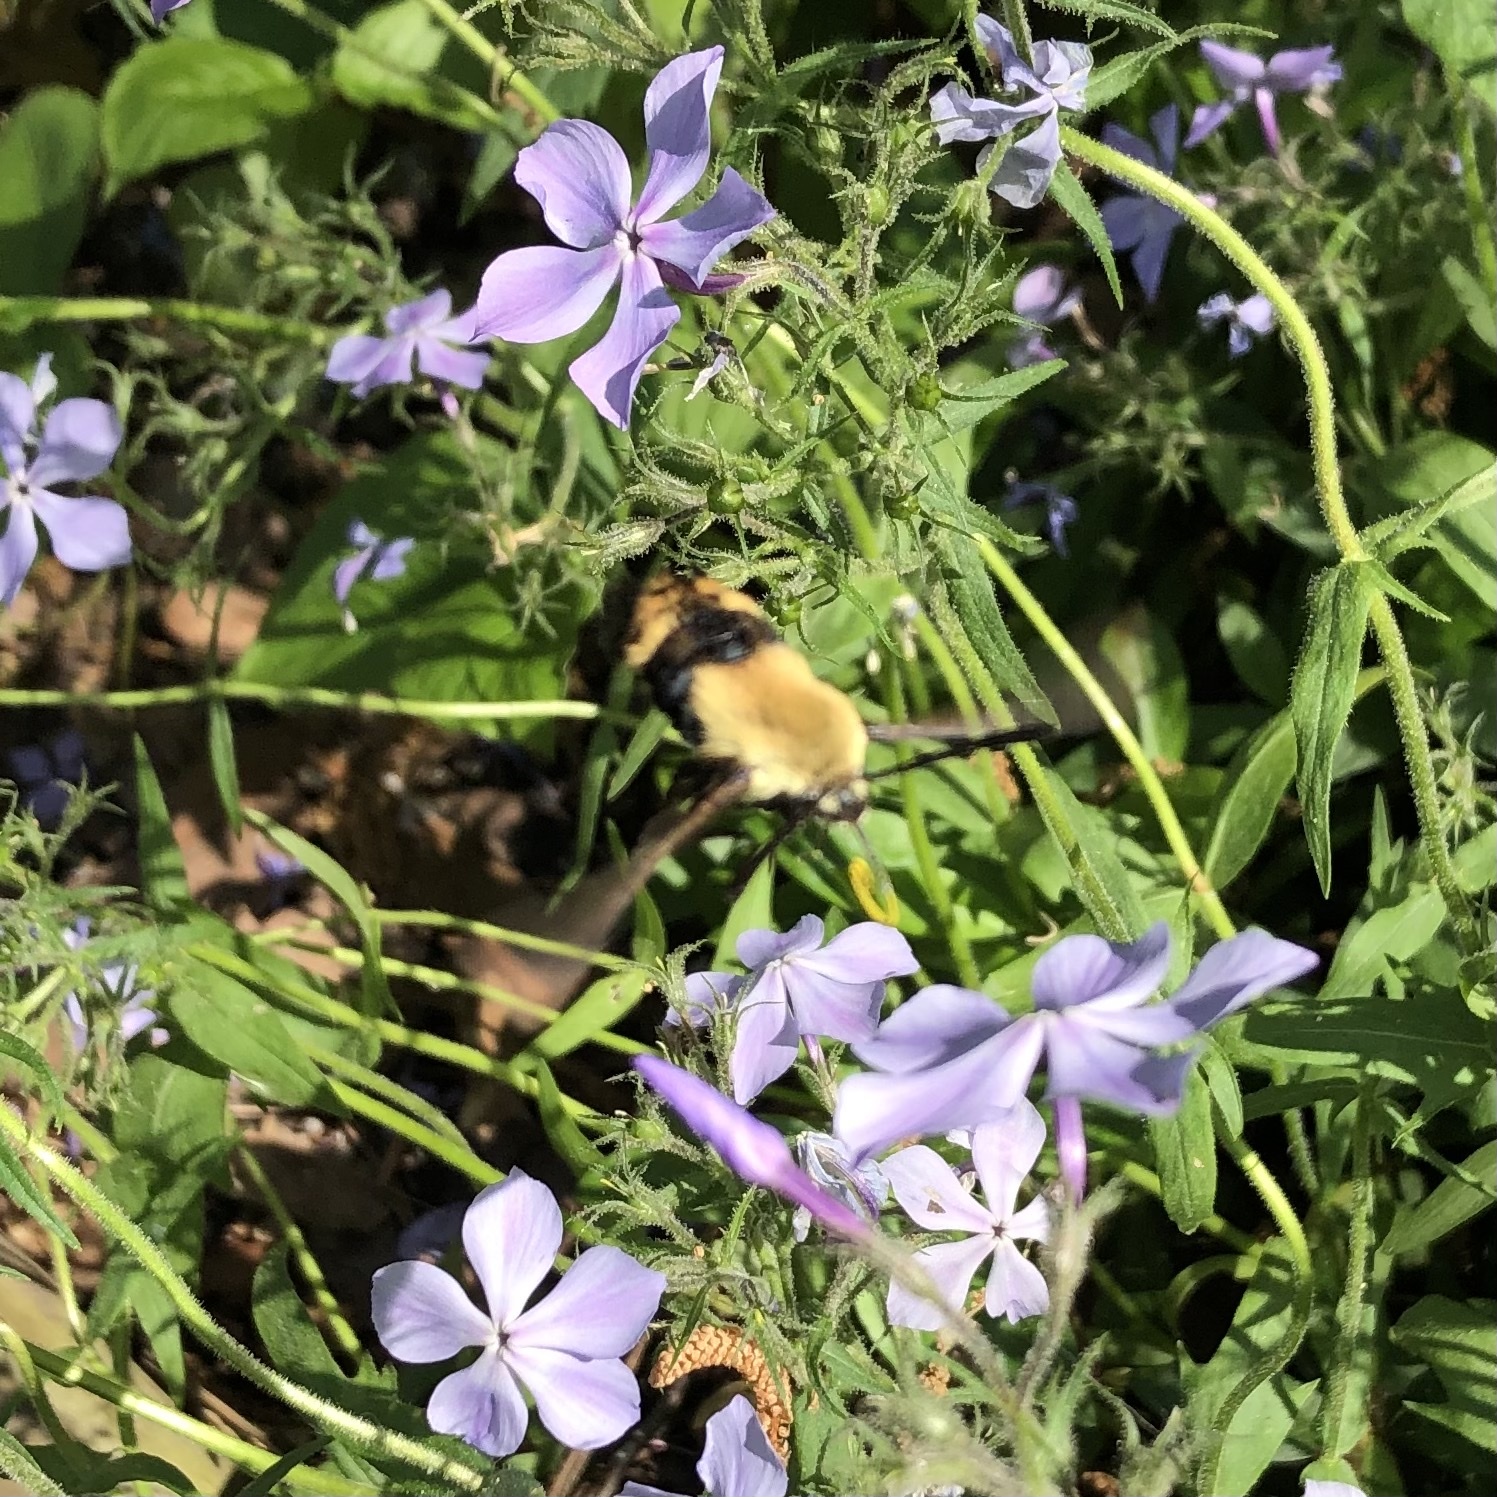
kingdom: Animalia
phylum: Arthropoda
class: Insecta
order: Lepidoptera
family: Sphingidae
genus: Hemaris
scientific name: Hemaris diffinis
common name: Bumblebee moth
